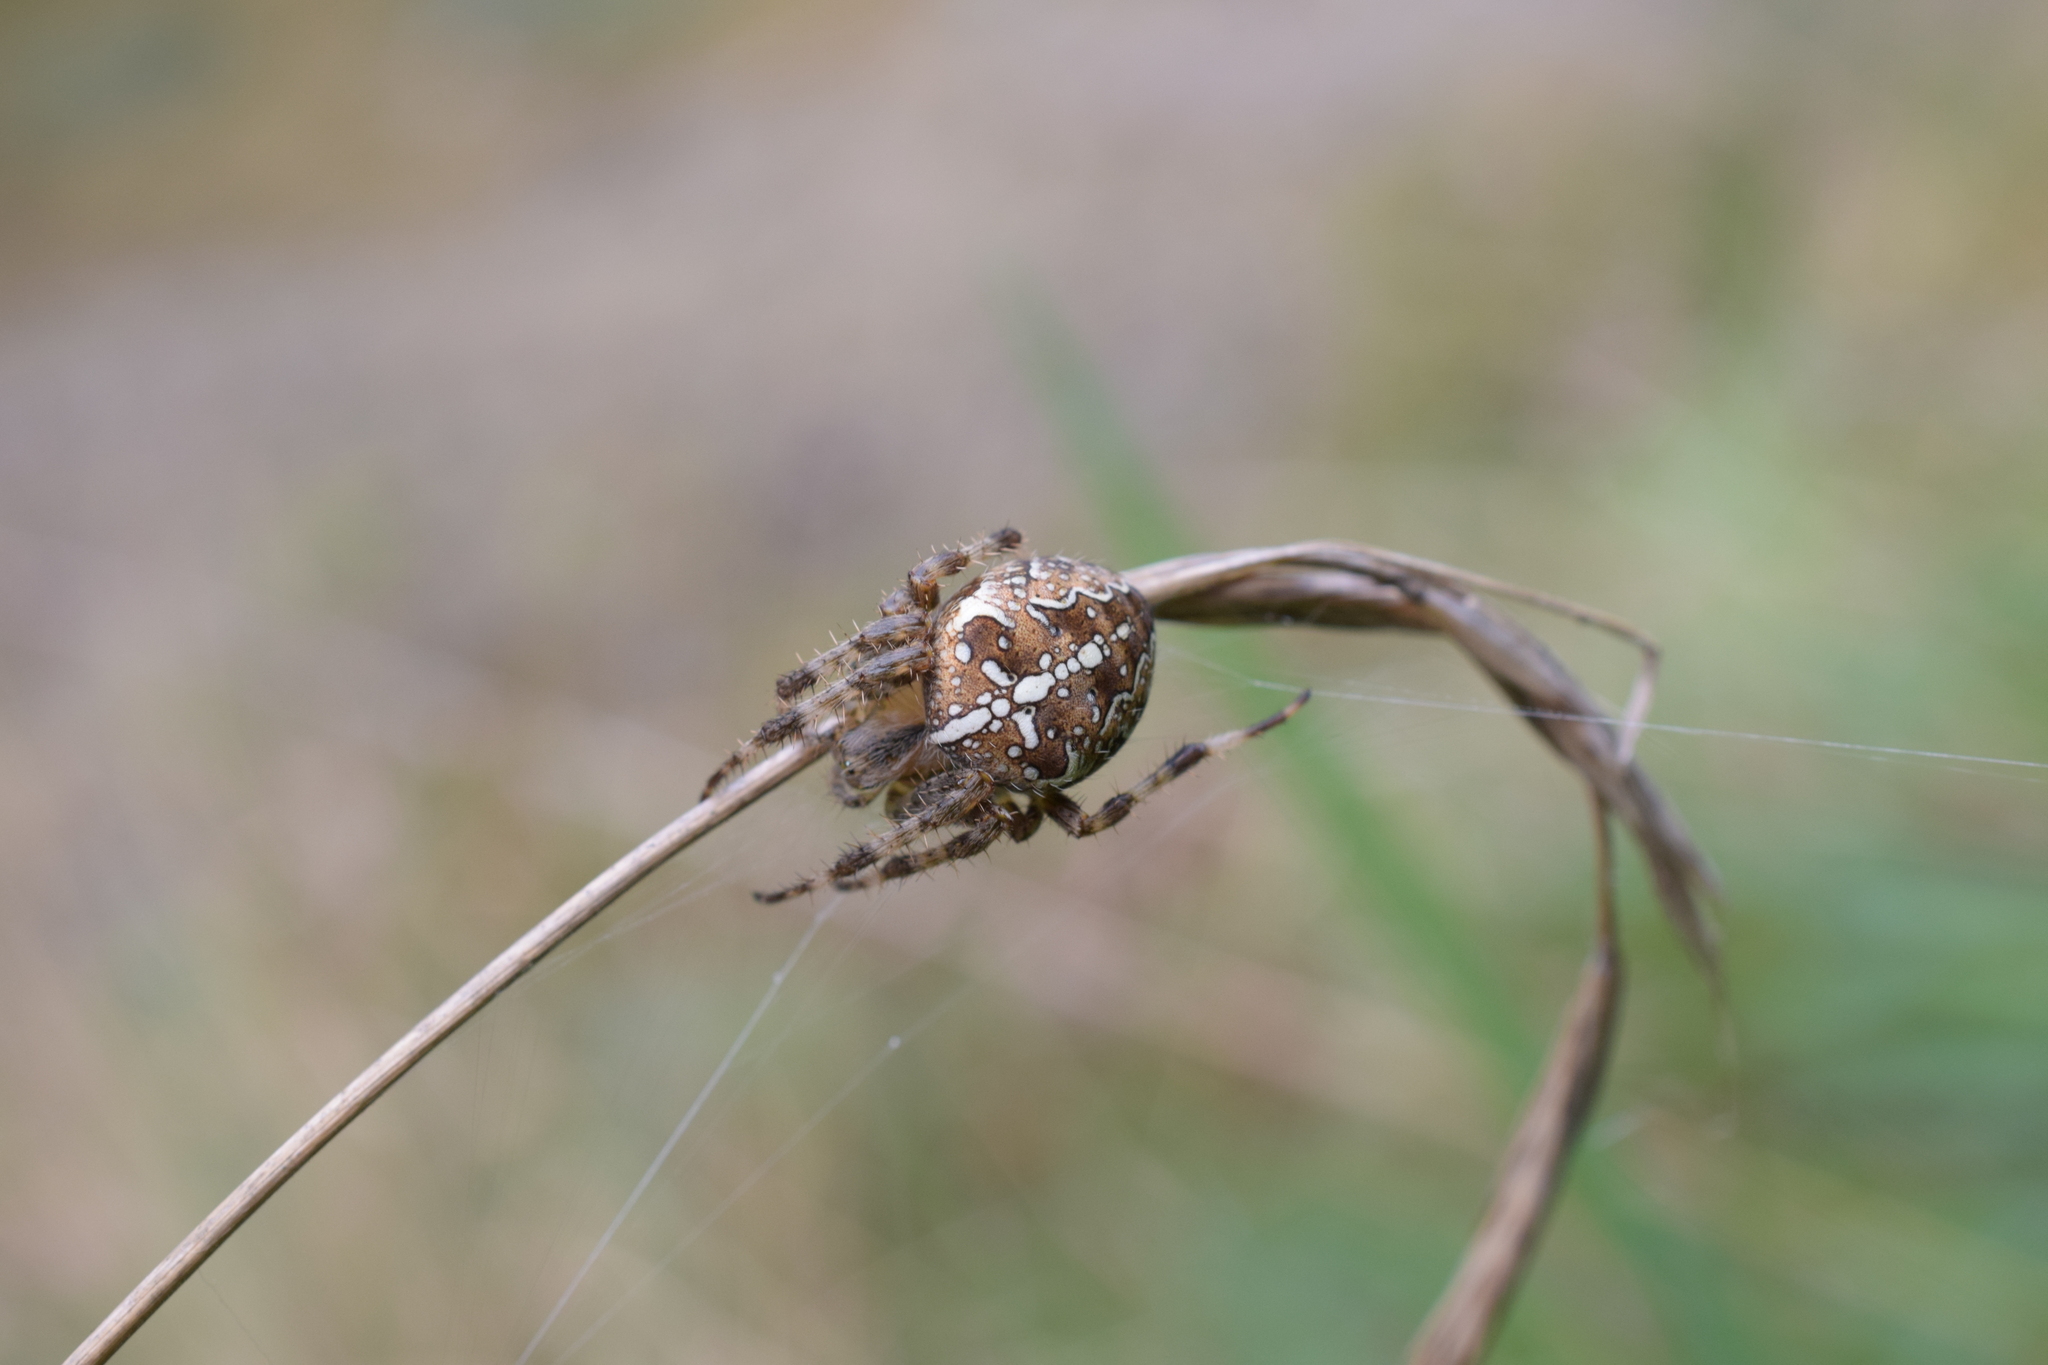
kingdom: Animalia
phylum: Arthropoda
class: Arachnida
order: Araneae
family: Araneidae
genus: Araneus
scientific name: Araneus diadematus
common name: Cross orbweaver
